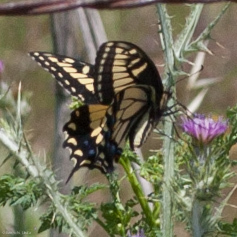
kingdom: Animalia
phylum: Arthropoda
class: Insecta
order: Lepidoptera
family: Papilionidae
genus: Papilio
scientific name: Papilio zelicaon
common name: Anise swallowtail
